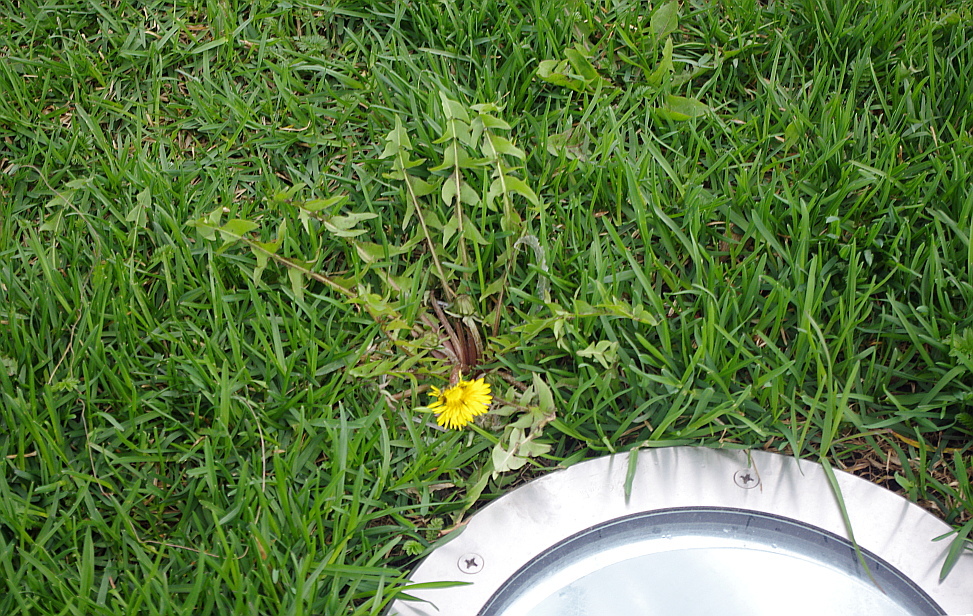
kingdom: Plantae
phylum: Tracheophyta
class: Magnoliopsida
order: Asterales
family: Asteraceae
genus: Taraxacum
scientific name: Taraxacum officinale
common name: Common dandelion
